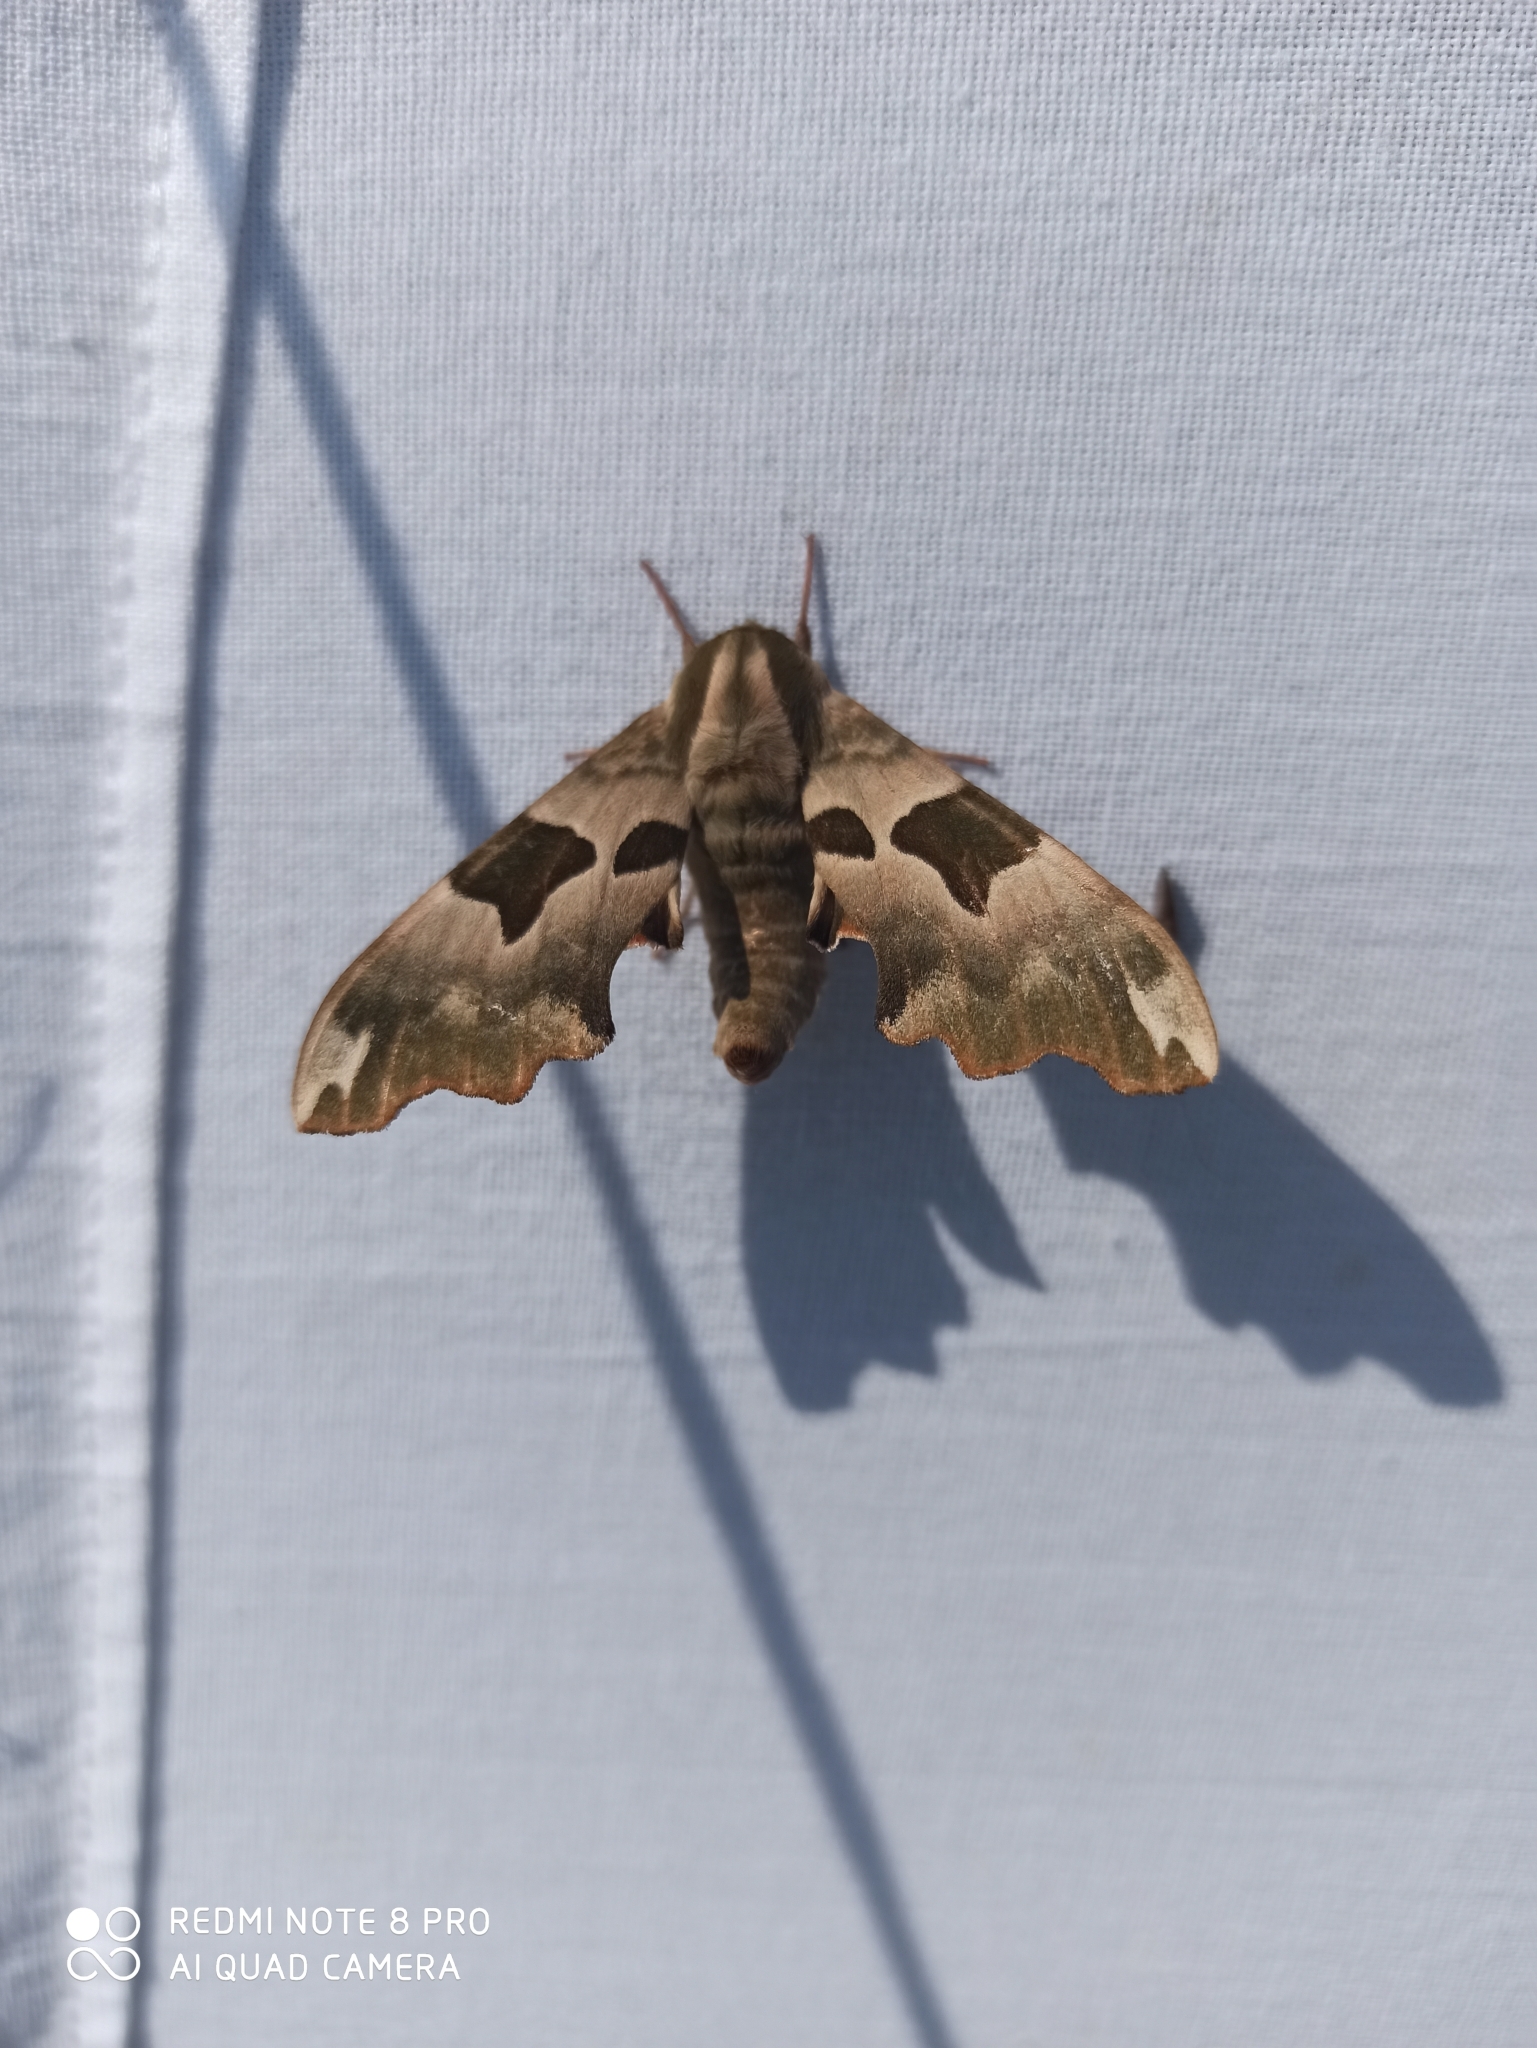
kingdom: Animalia
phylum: Arthropoda
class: Insecta
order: Lepidoptera
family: Sphingidae
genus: Mimas
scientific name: Mimas tiliae
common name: Lime hawk-moth
